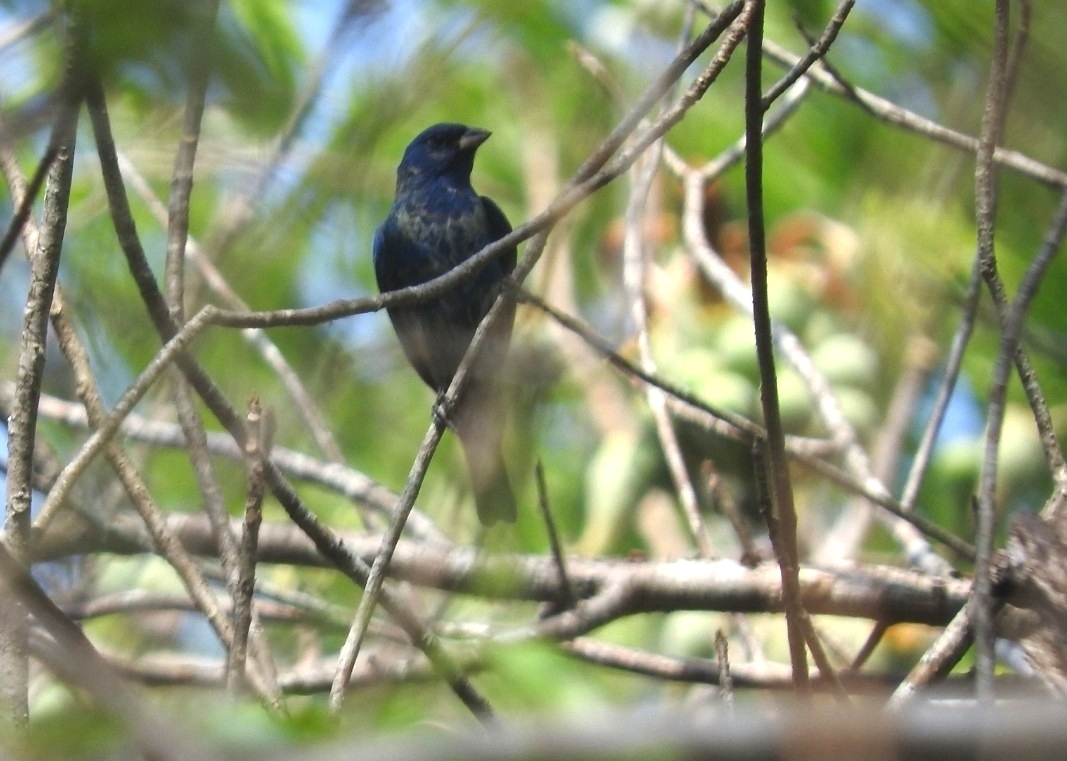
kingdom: Animalia
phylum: Chordata
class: Aves
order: Passeriformes
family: Cardinalidae
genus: Passerina
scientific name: Passerina cyanea
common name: Indigo bunting
